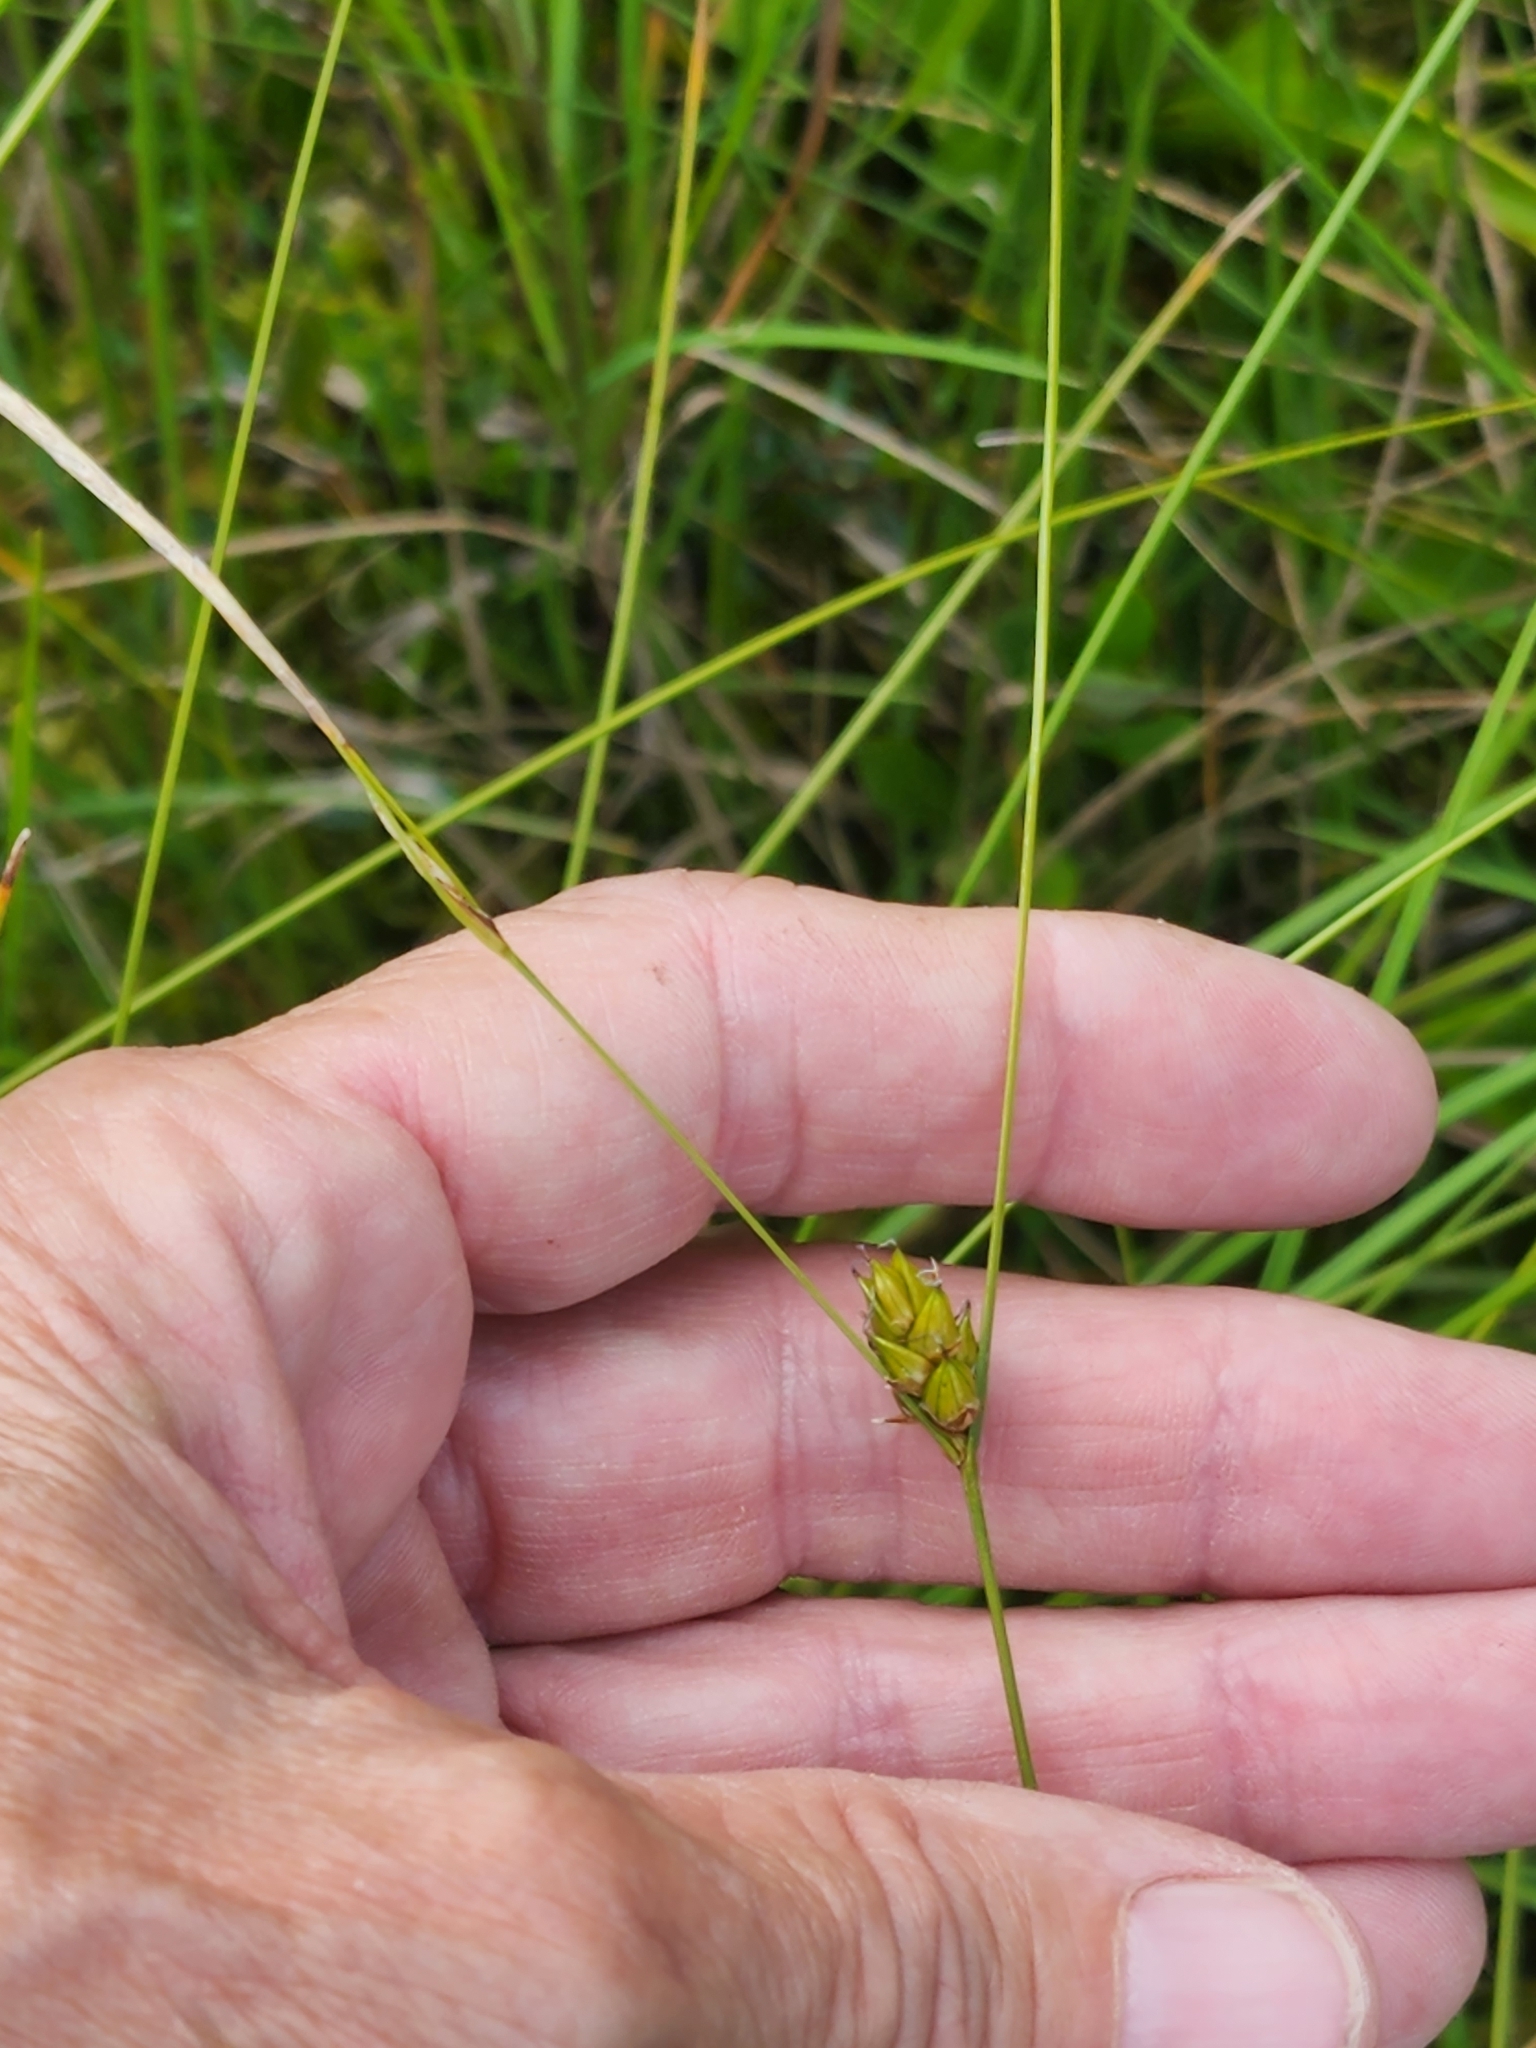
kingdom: Plantae
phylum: Tracheophyta
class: Liliopsida
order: Poales
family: Cyperaceae
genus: Carex
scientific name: Carex oligosperma
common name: Few-seed sedge
